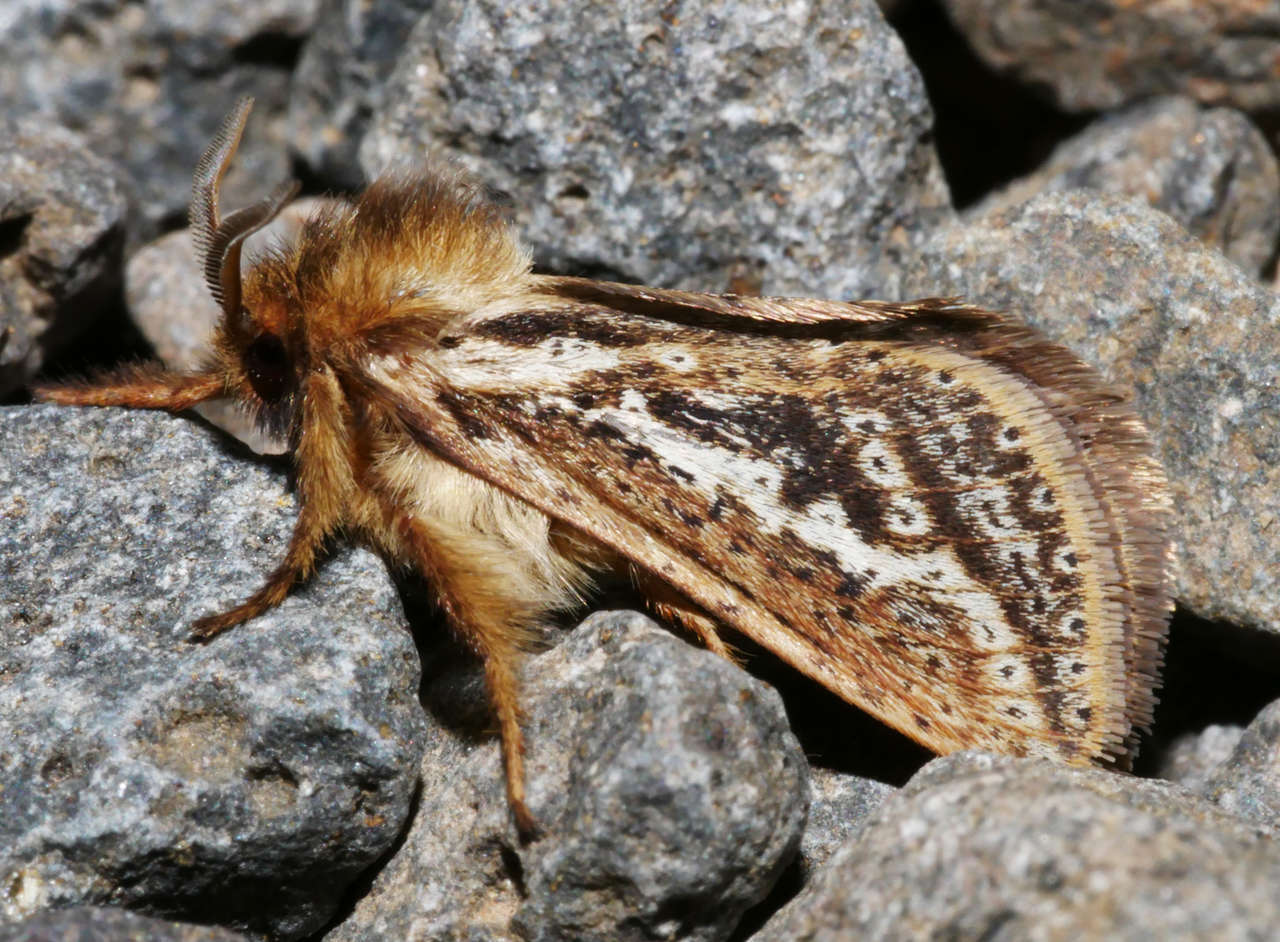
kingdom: Animalia
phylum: Arthropoda
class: Insecta
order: Lepidoptera
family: Hepialidae
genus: Fraus
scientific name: Fraus simulans
